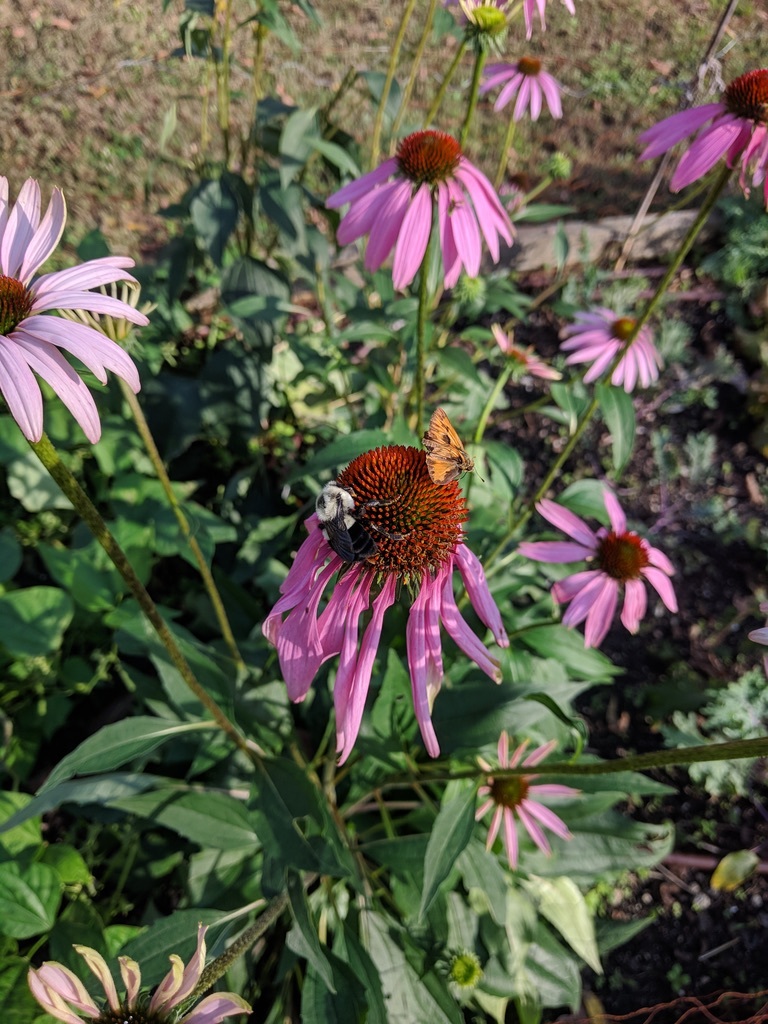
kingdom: Animalia
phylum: Arthropoda
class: Insecta
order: Hymenoptera
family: Apidae
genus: Bombus
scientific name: Bombus impatiens
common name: Common eastern bumble bee
